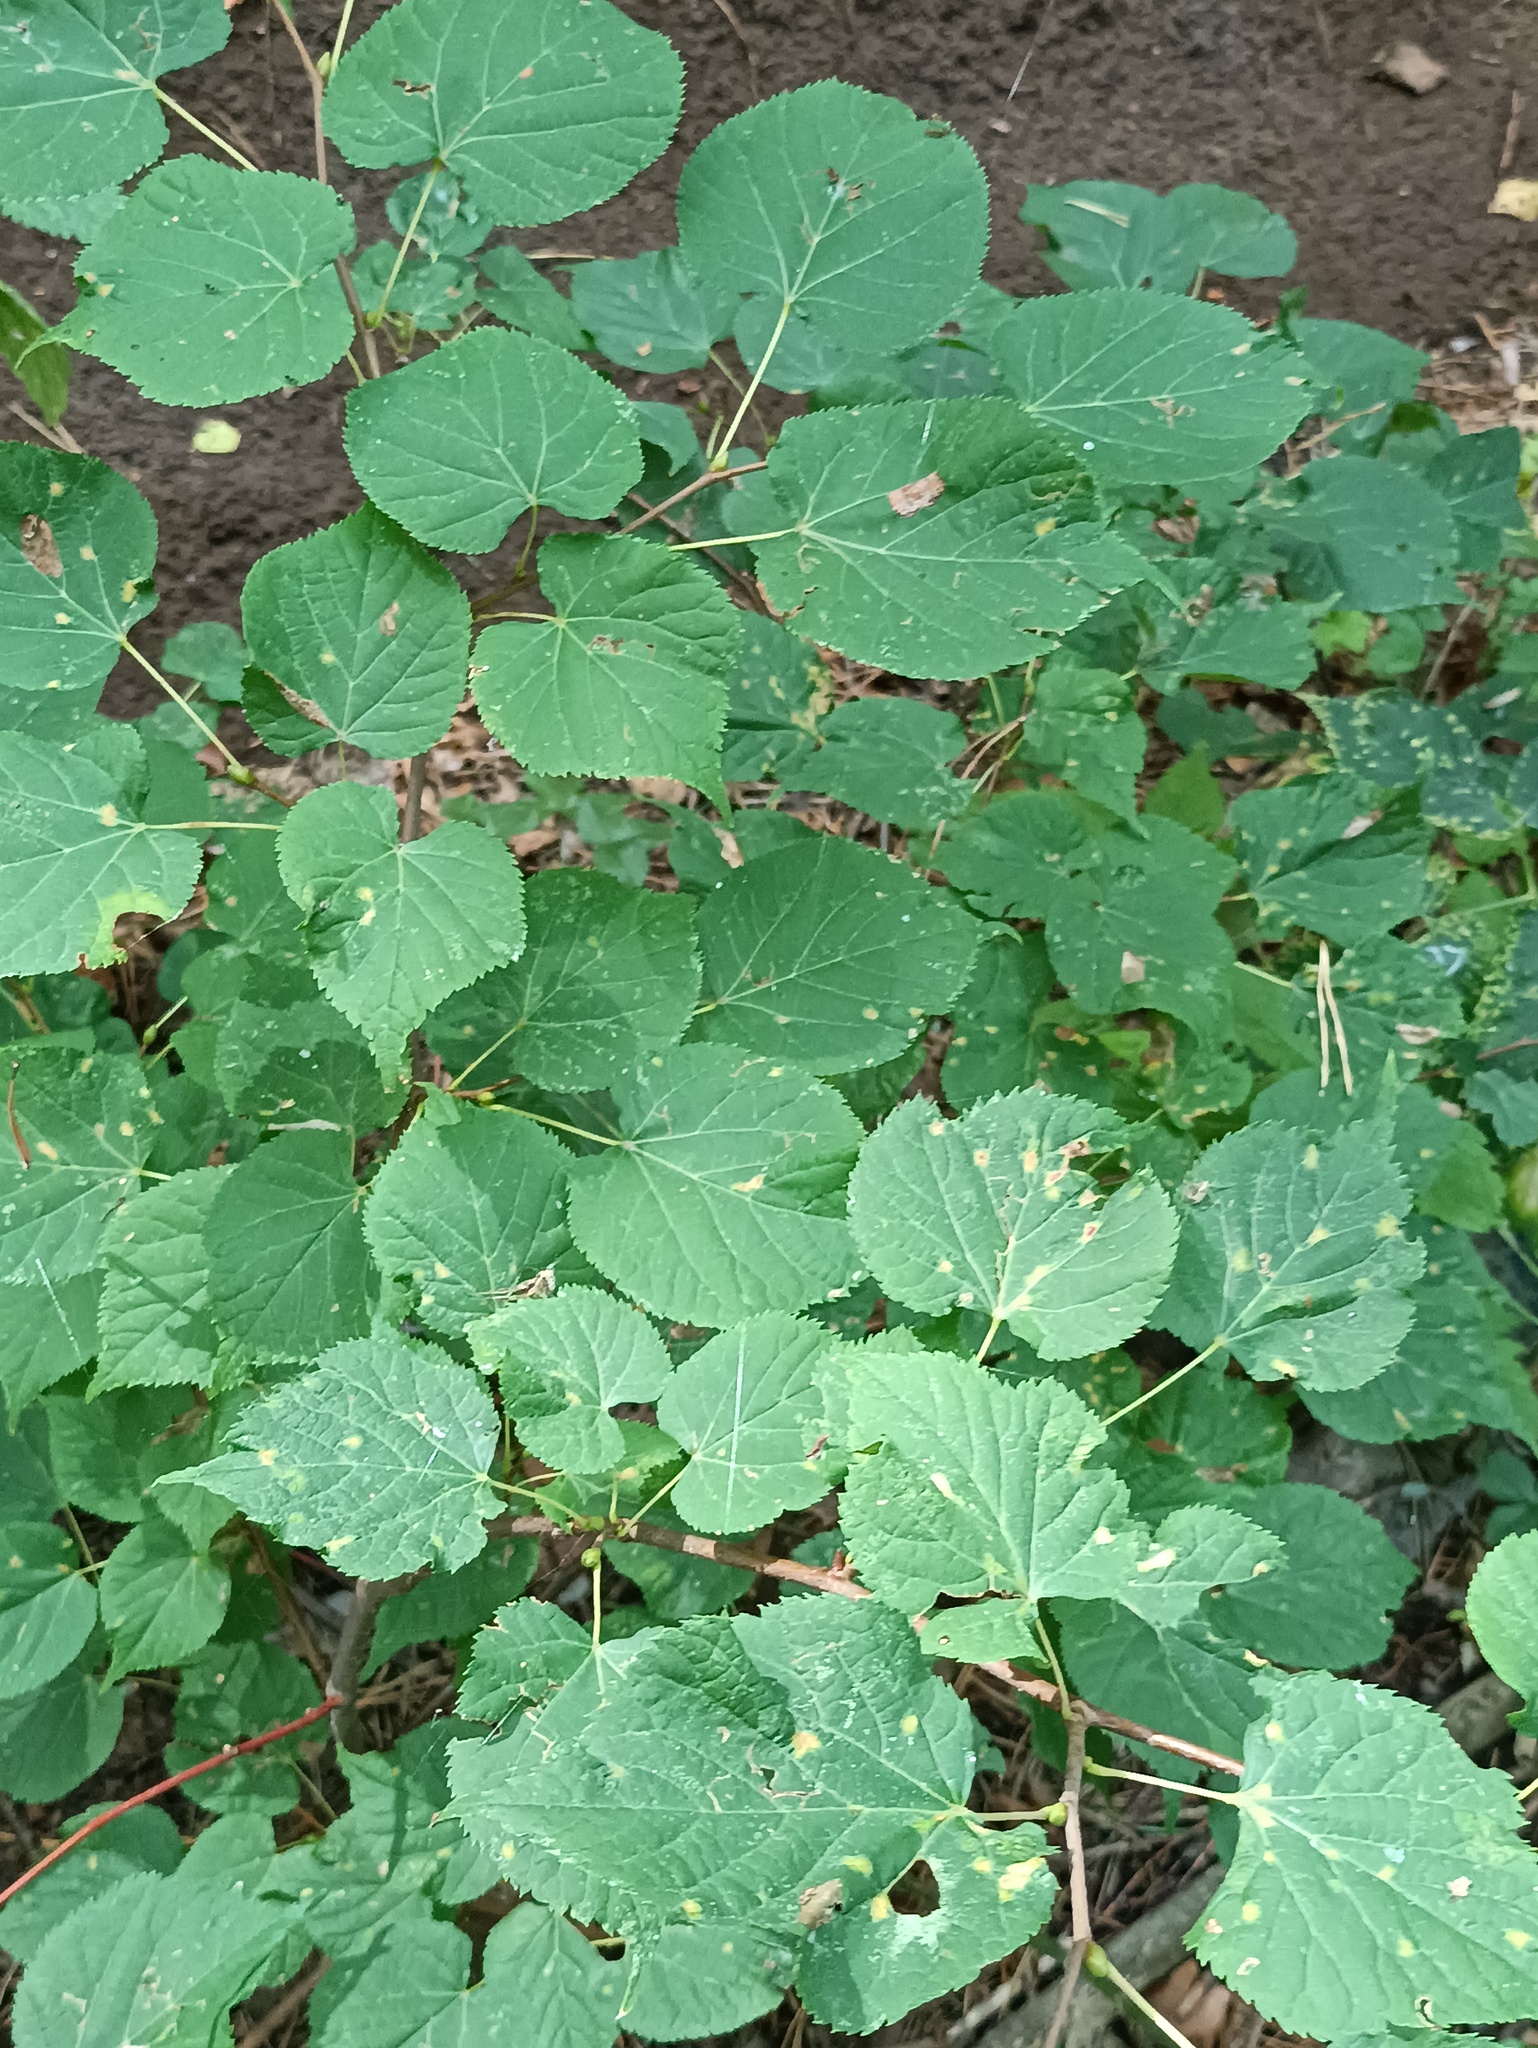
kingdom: Plantae
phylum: Tracheophyta
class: Magnoliopsida
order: Malvales
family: Malvaceae
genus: Tilia
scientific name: Tilia cordata
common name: Small-leaved lime
